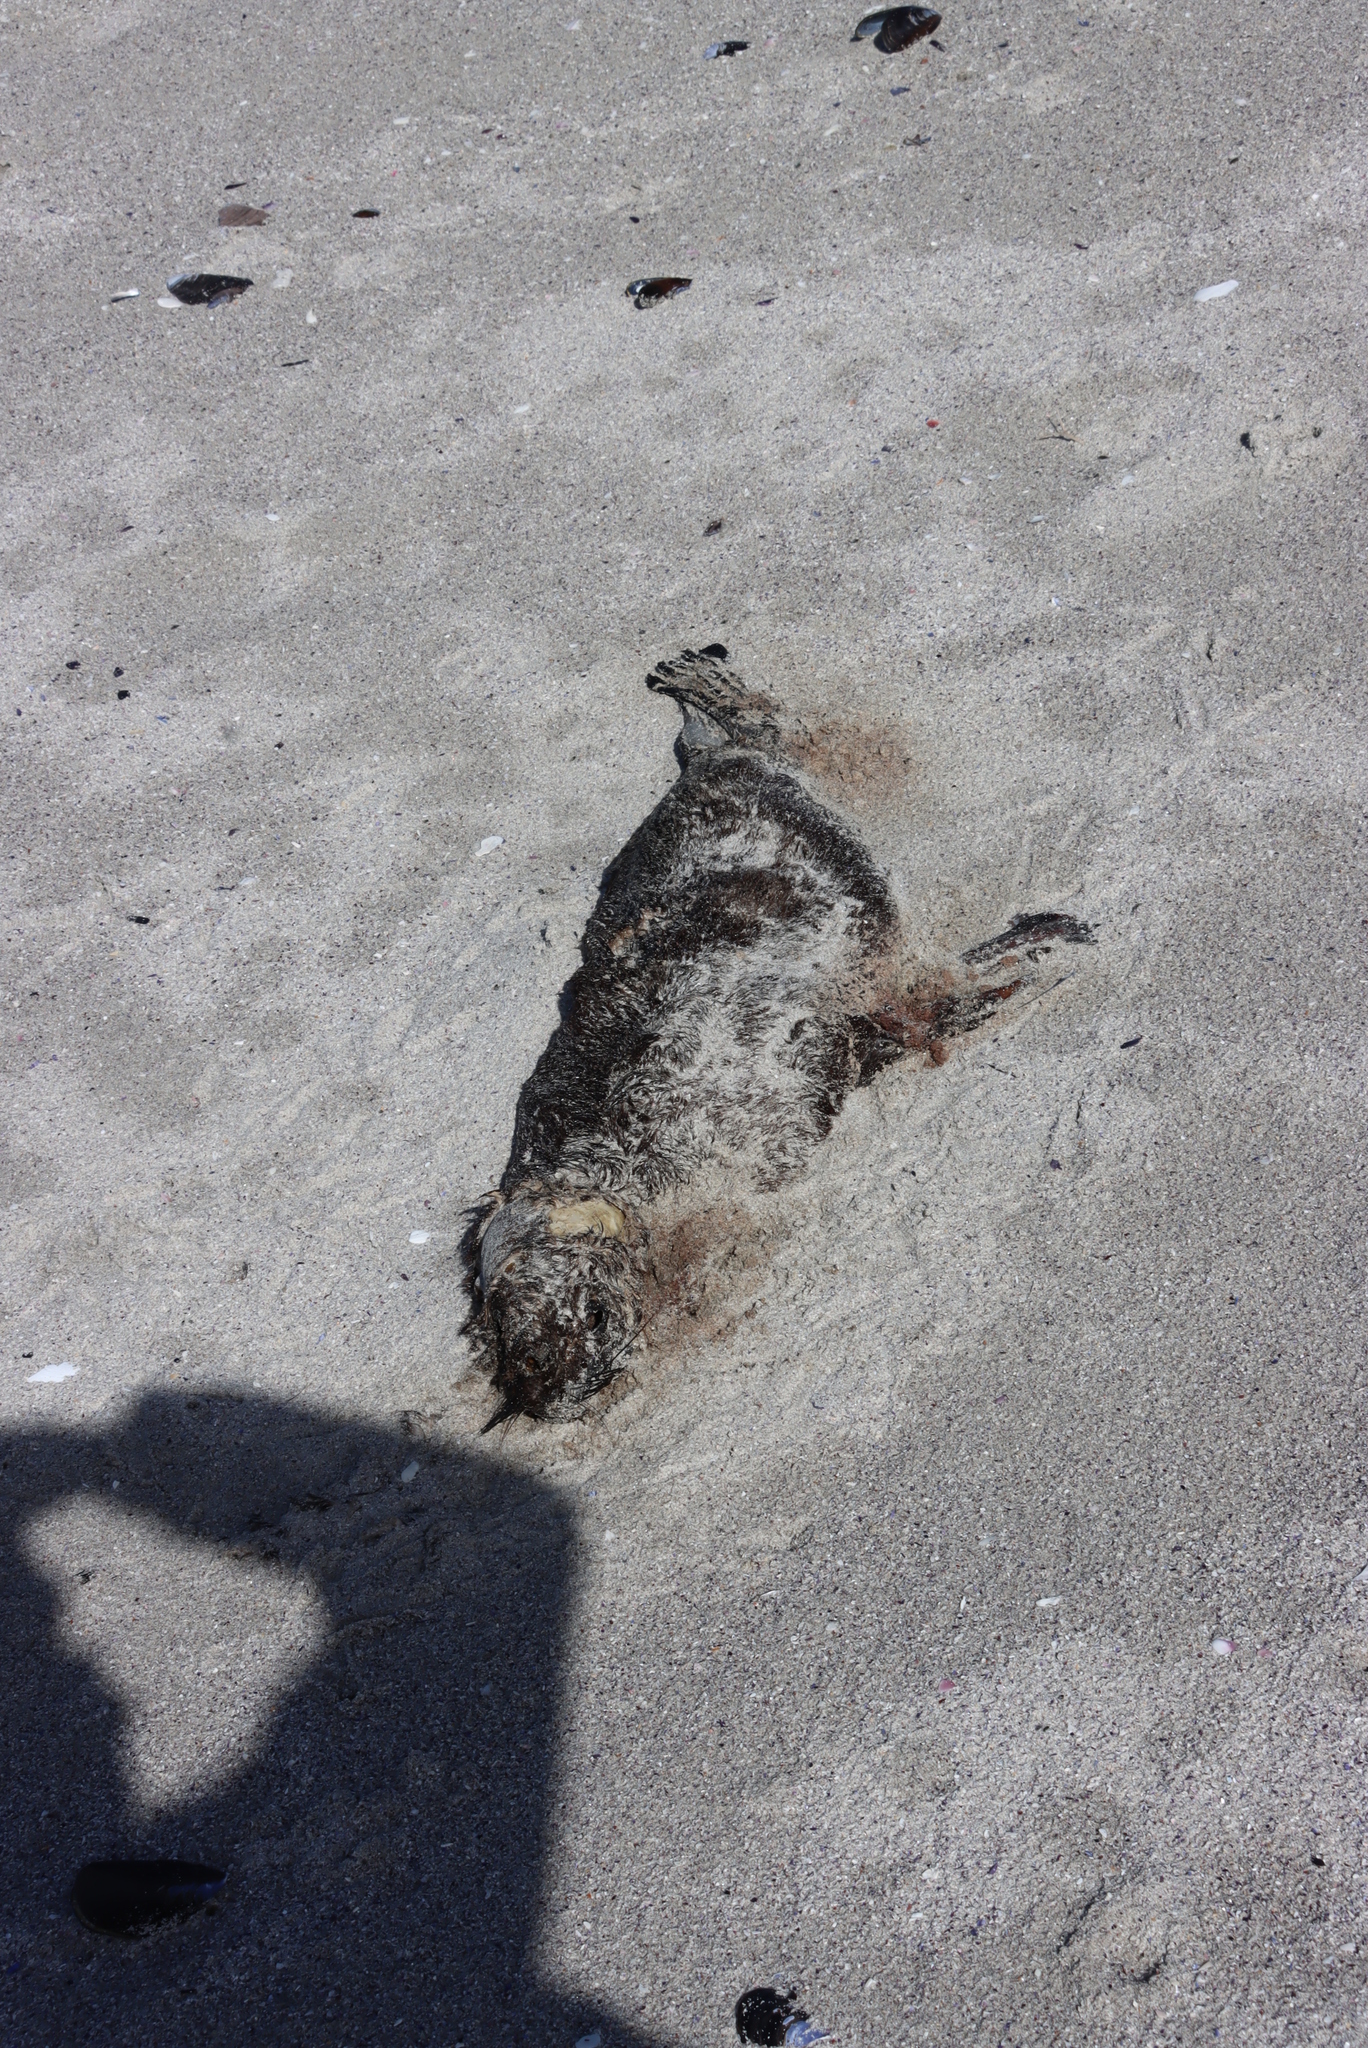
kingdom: Animalia
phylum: Chordata
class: Mammalia
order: Carnivora
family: Otariidae
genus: Arctocephalus
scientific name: Arctocephalus pusillus
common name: Brown fur seal
